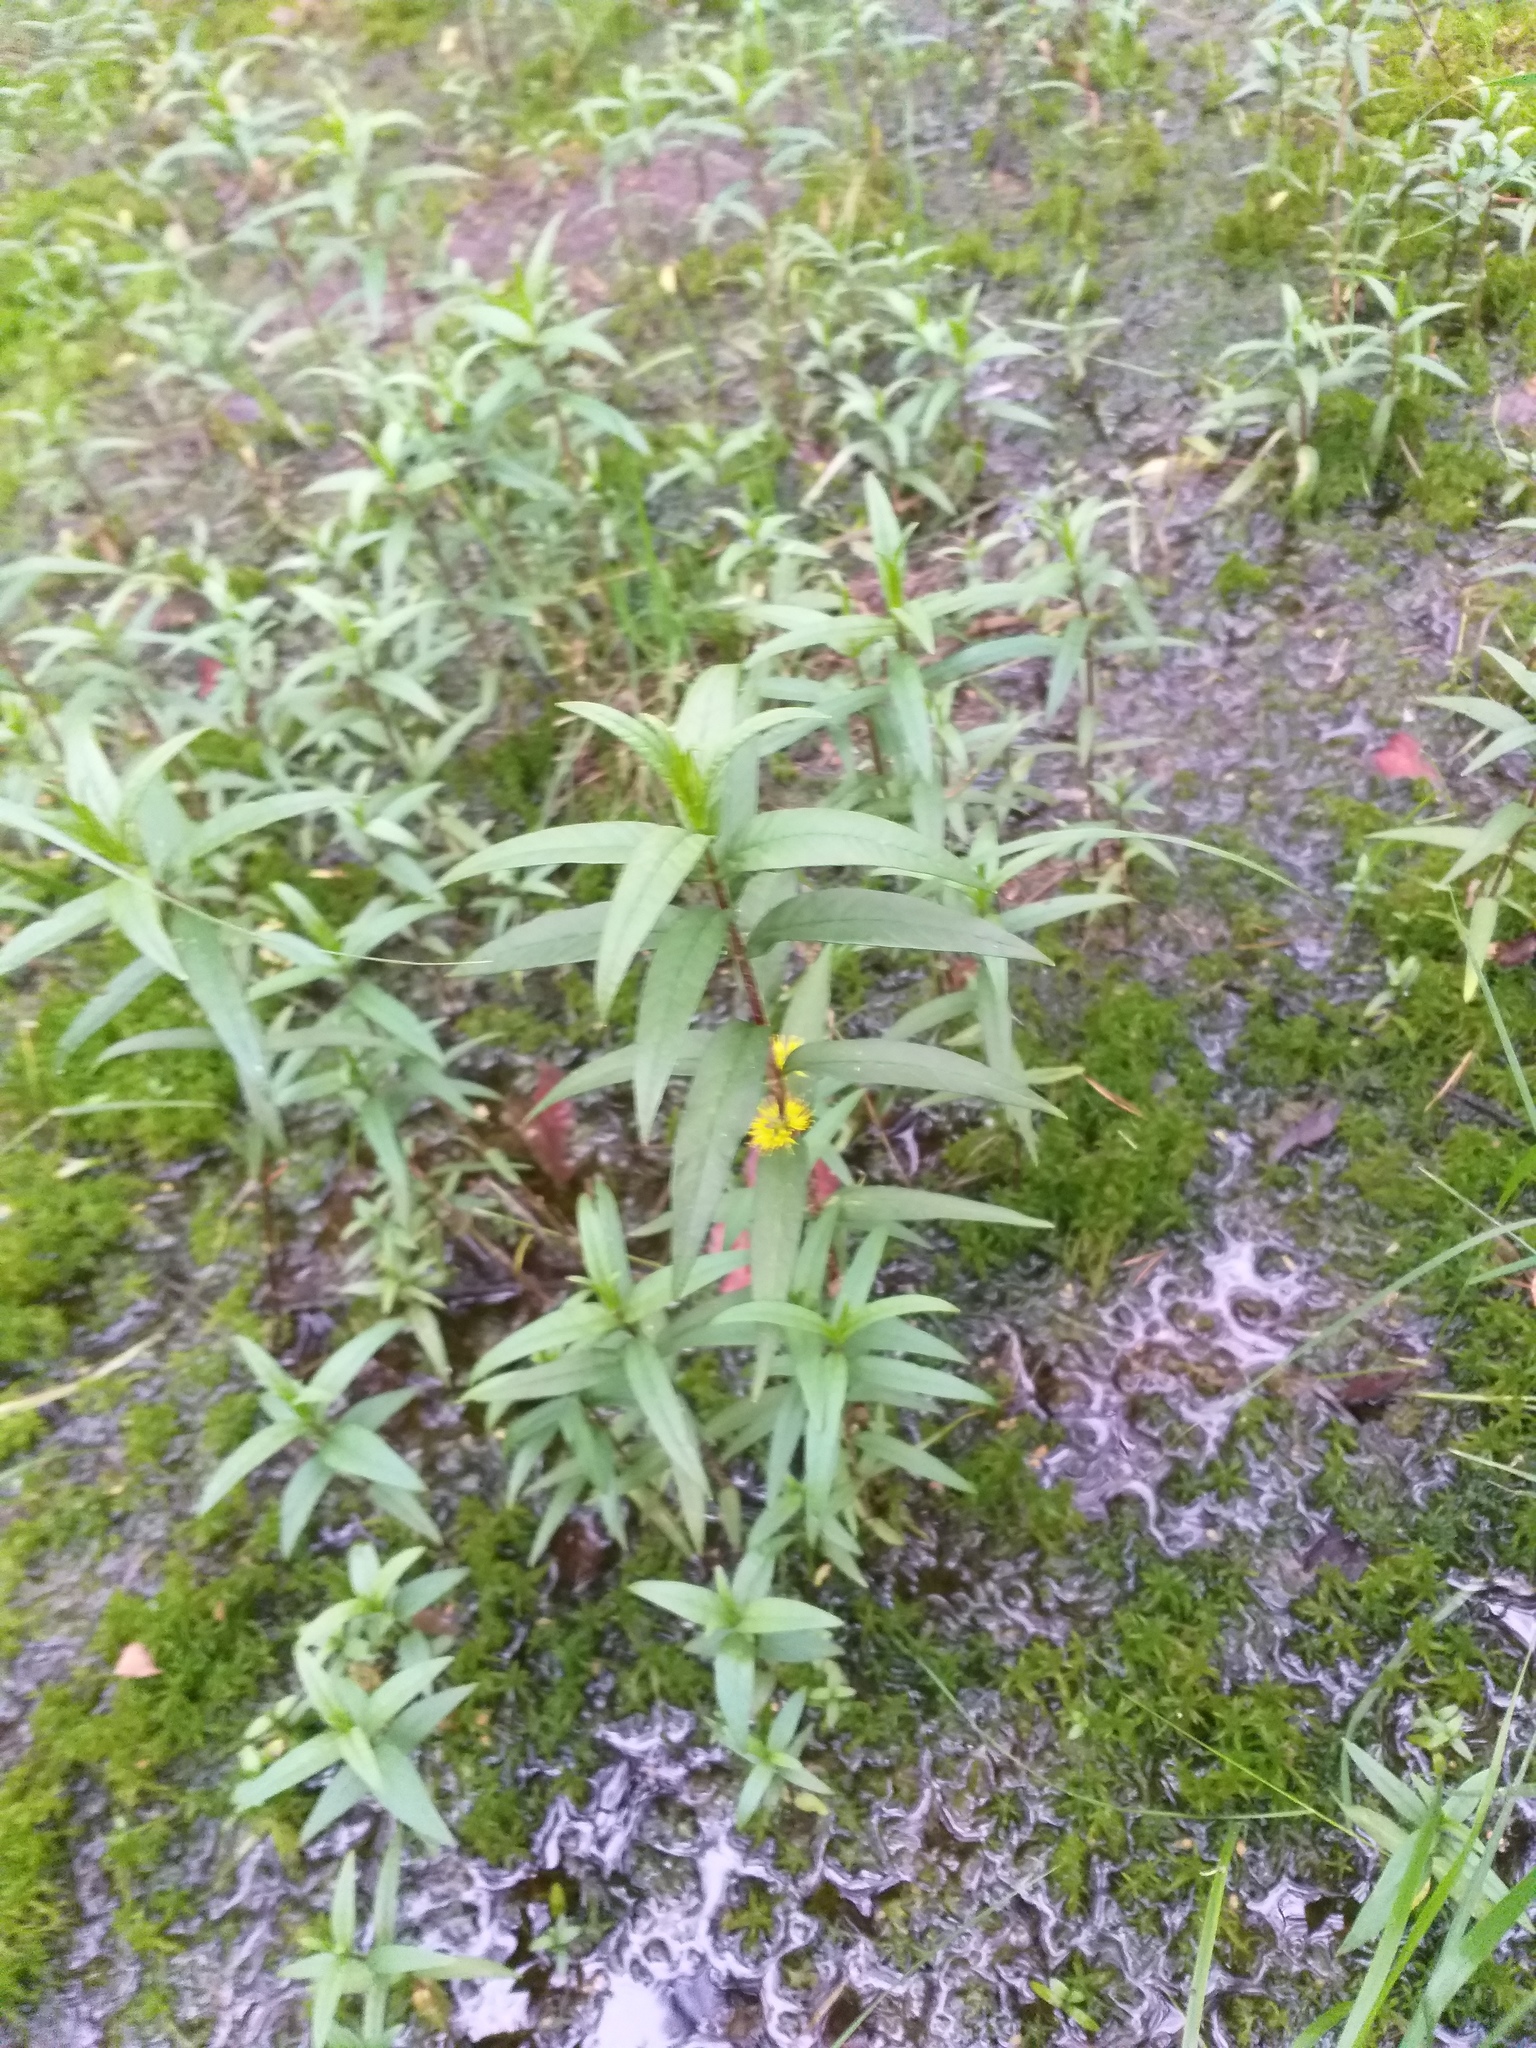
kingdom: Plantae
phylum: Tracheophyta
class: Magnoliopsida
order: Ericales
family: Primulaceae
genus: Lysimachia
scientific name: Lysimachia thyrsiflora
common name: Tufted loosestrife
